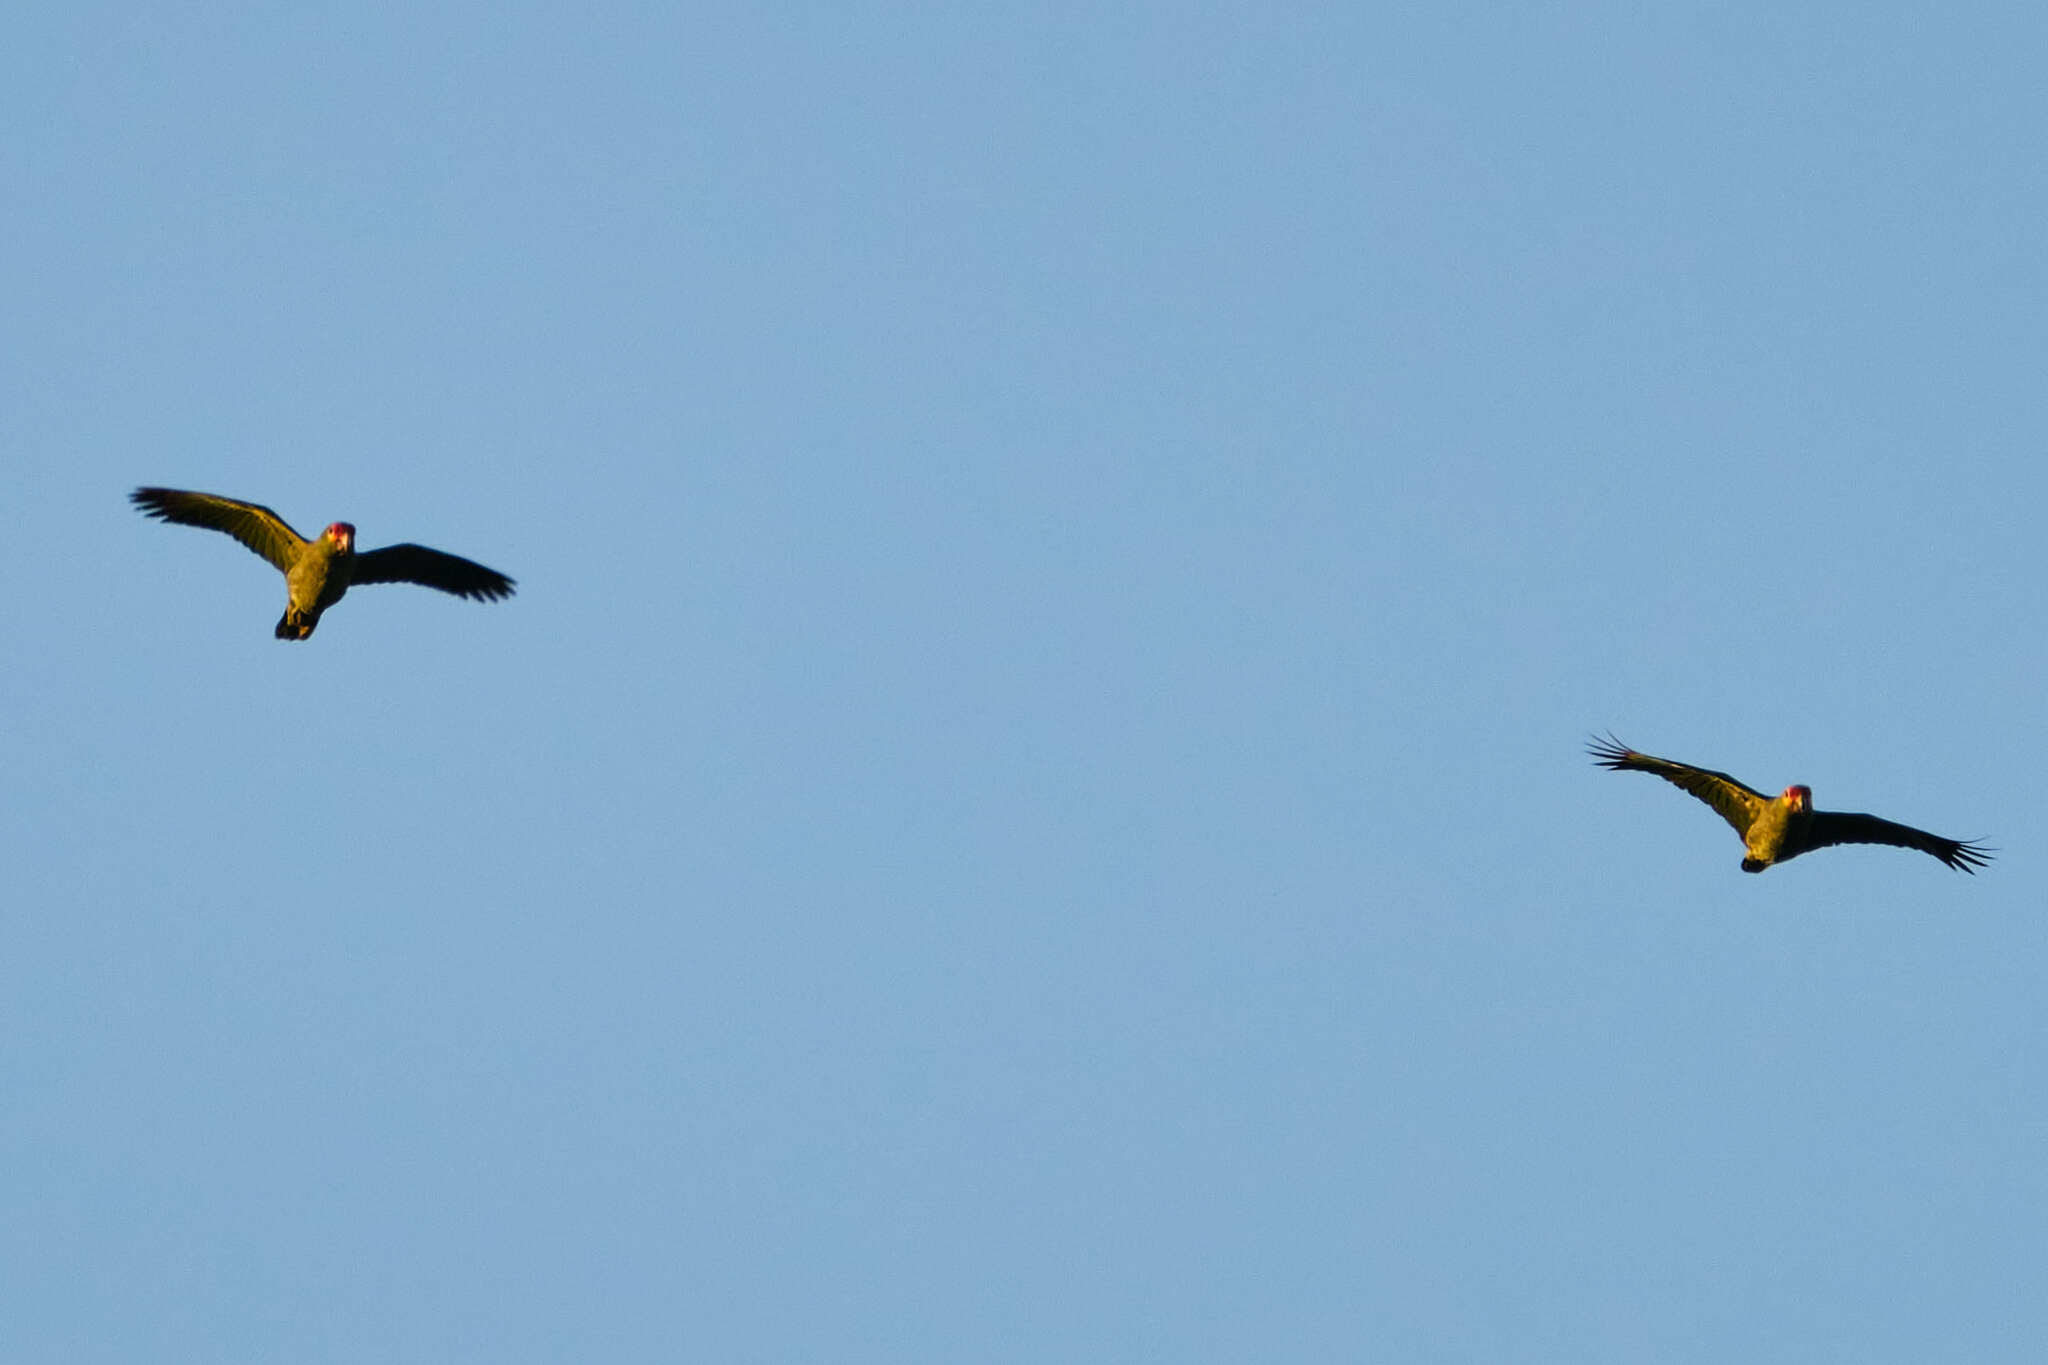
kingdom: Animalia
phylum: Chordata
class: Aves
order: Psittaciformes
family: Psittacidae
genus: Amazona
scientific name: Amazona autumnalis
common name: Red-lored amazon
